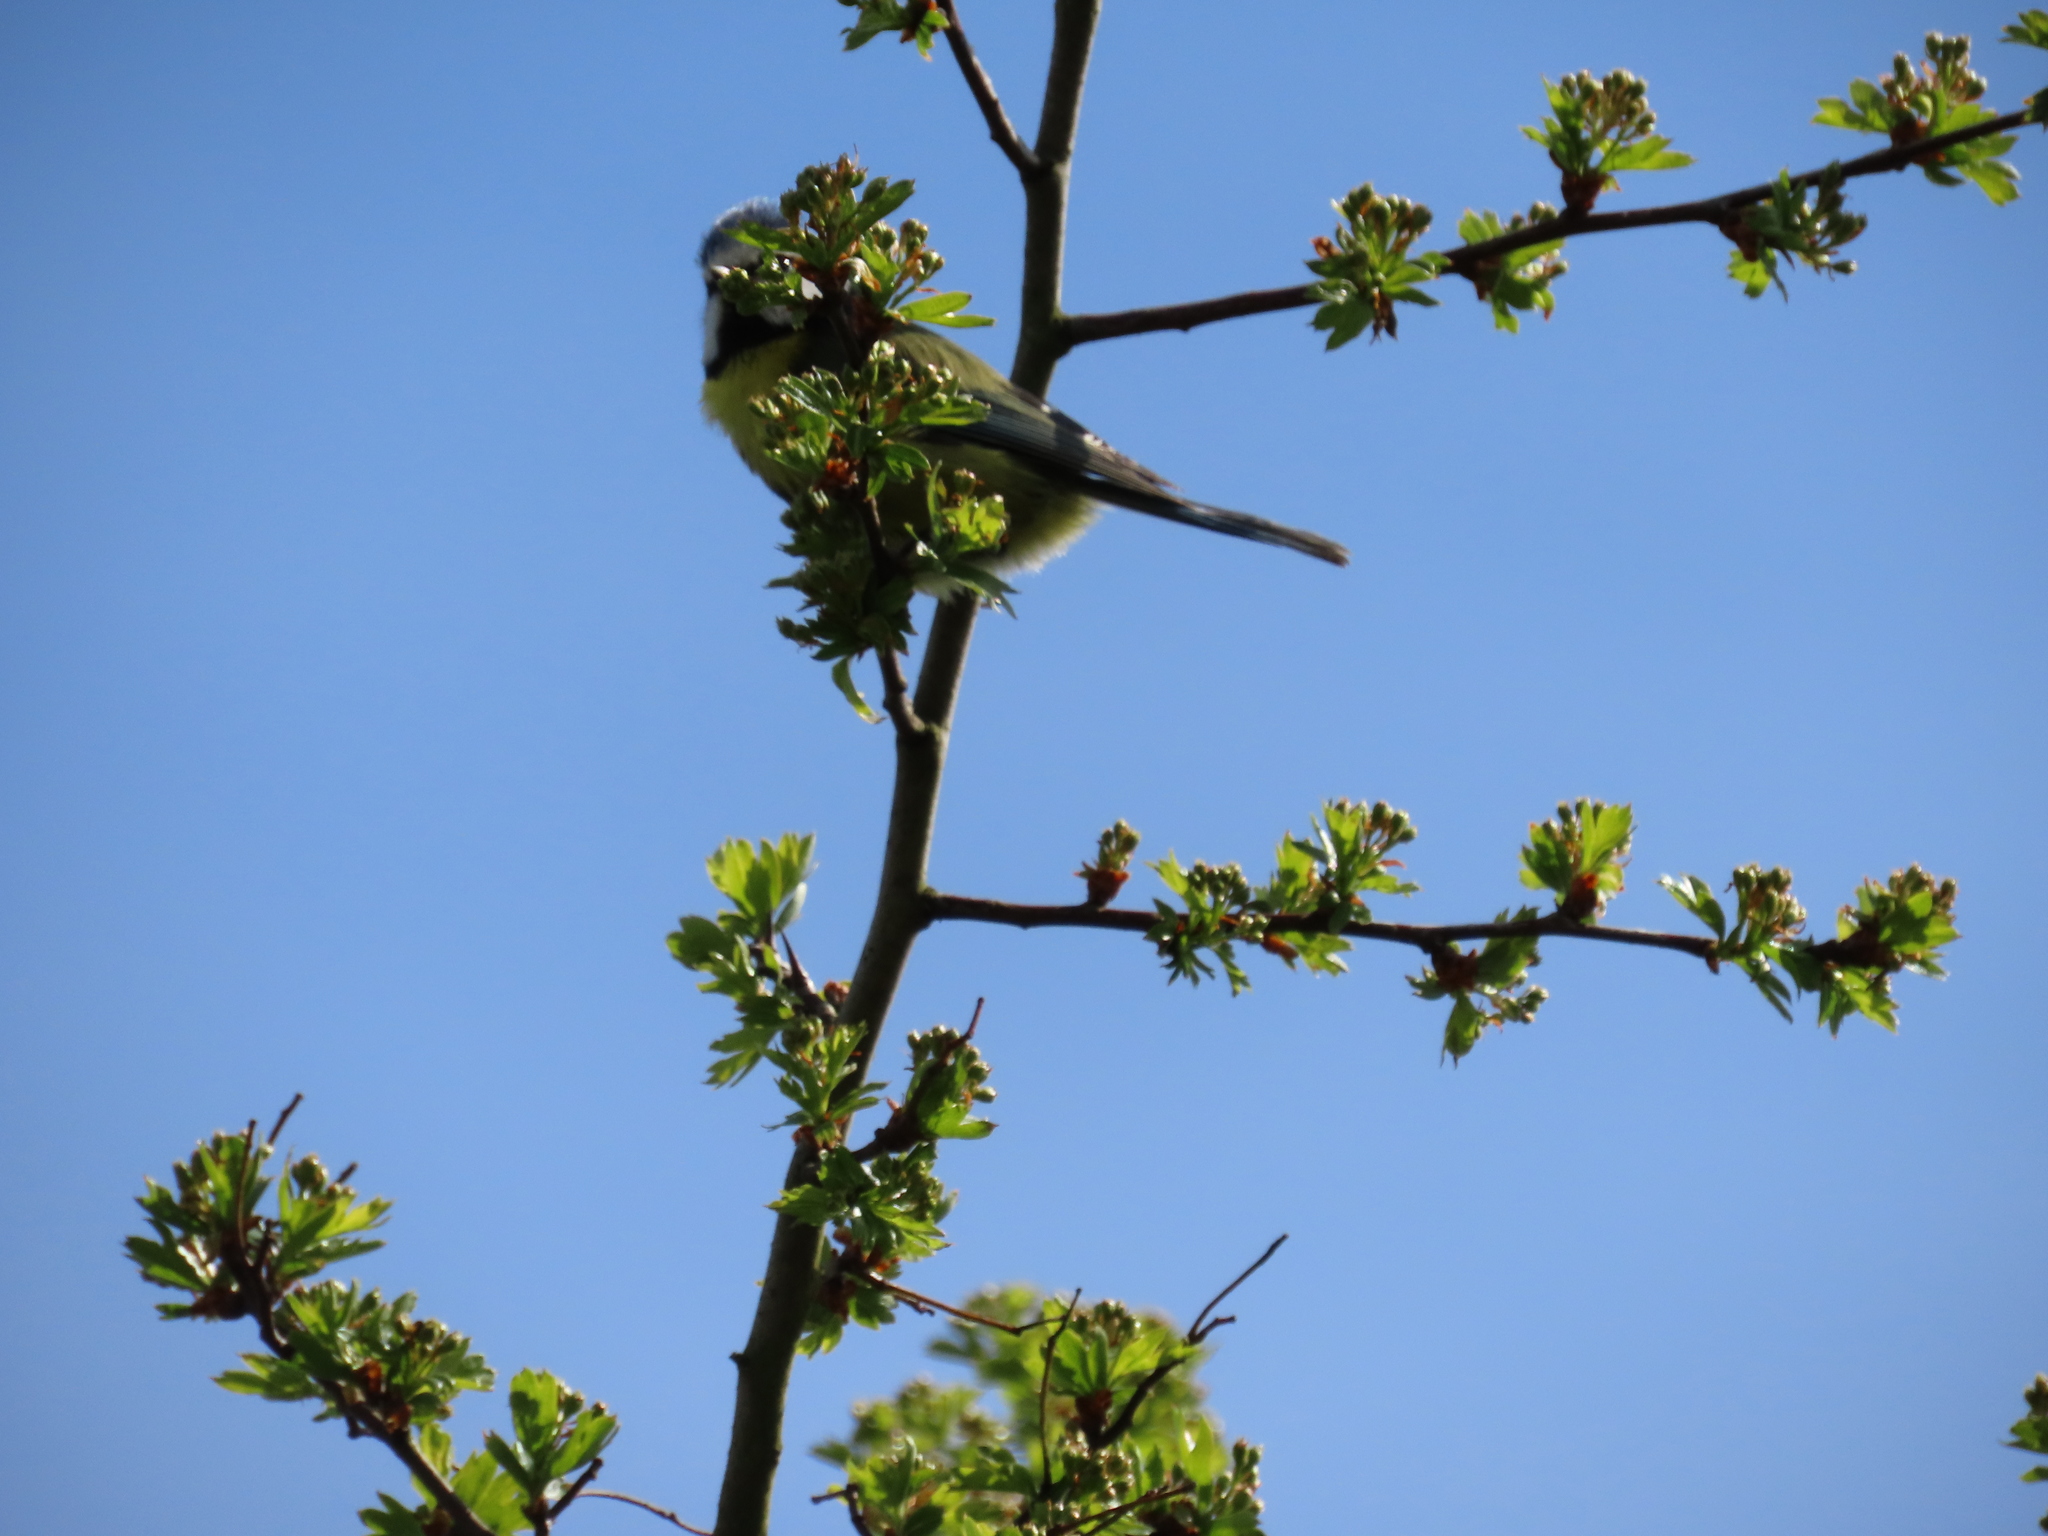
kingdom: Animalia
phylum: Chordata
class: Aves
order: Passeriformes
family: Paridae
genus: Cyanistes
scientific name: Cyanistes caeruleus
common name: Eurasian blue tit
